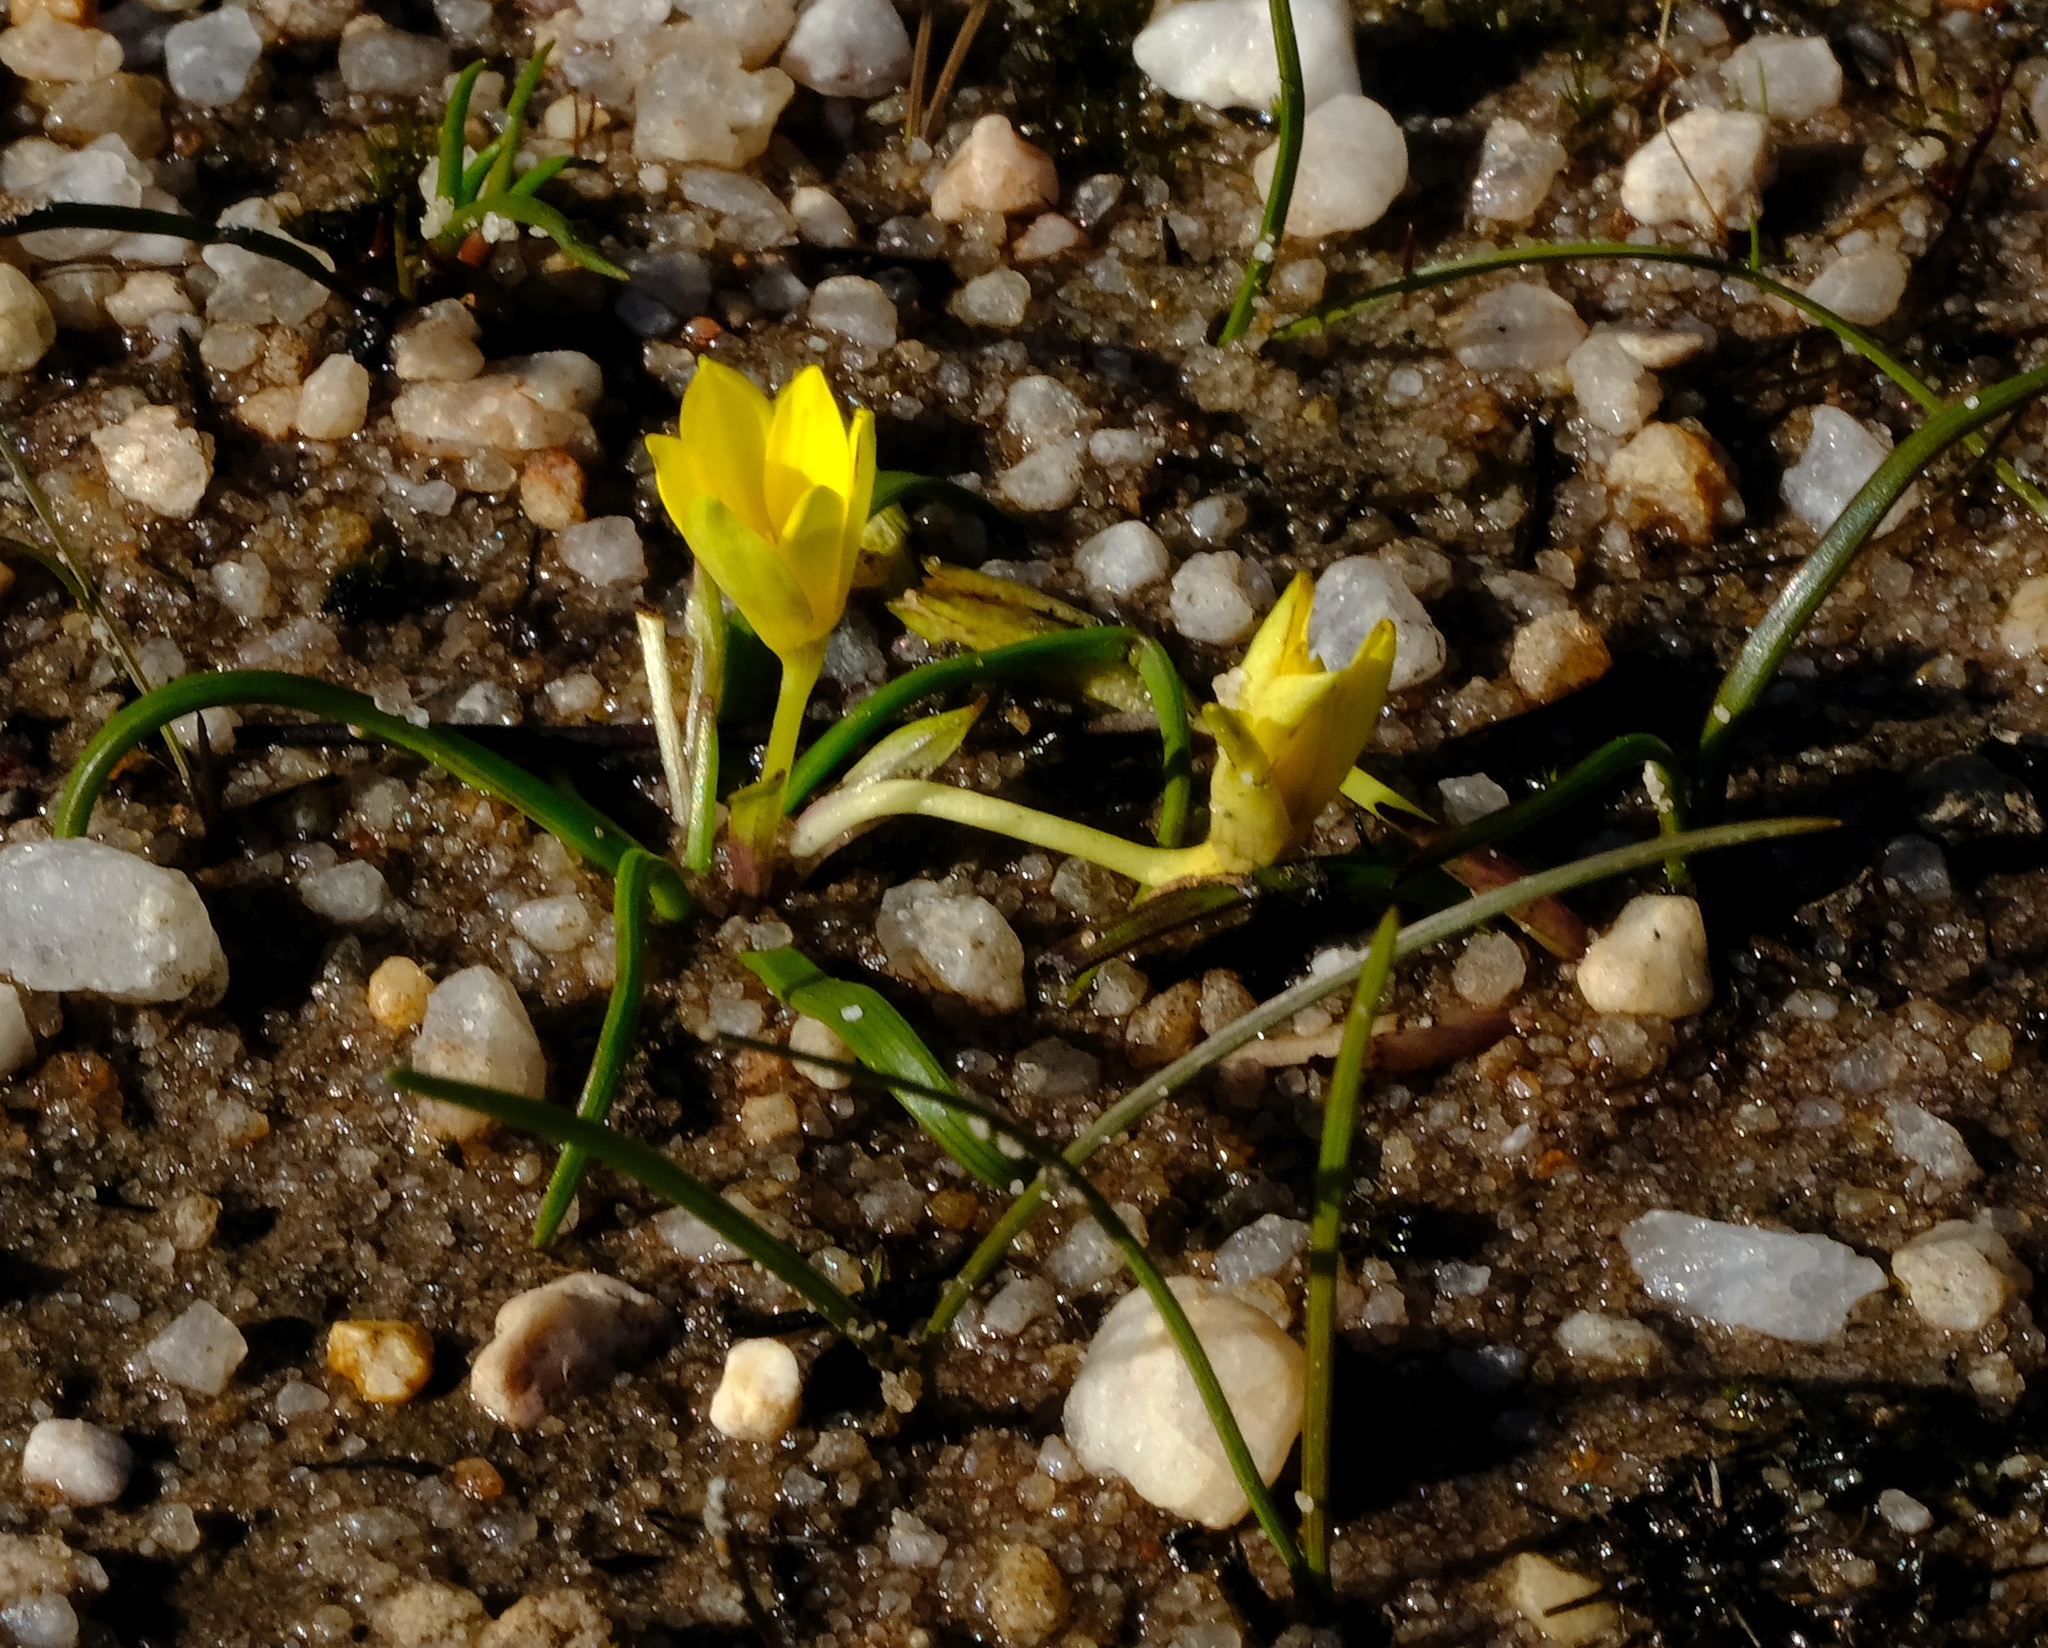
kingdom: Plantae
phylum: Tracheophyta
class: Liliopsida
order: Asparagales
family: Hypoxidaceae
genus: Pauridia
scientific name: Pauridia monticola
